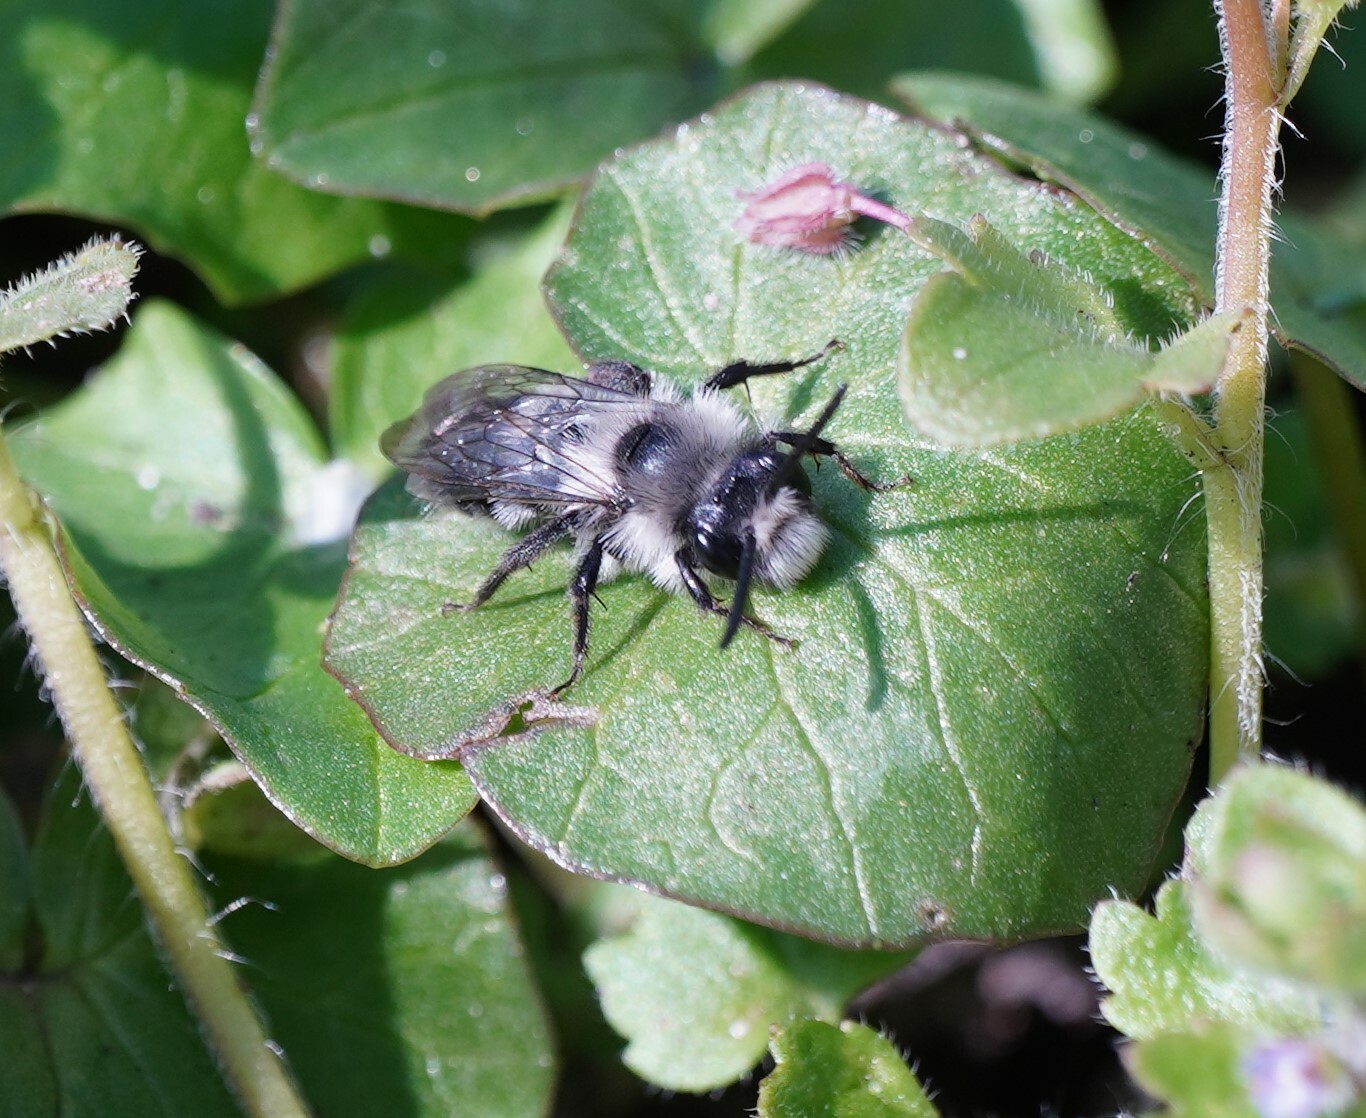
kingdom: Animalia
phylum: Arthropoda
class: Insecta
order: Hymenoptera
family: Andrenidae
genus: Andrena
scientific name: Andrena cineraria
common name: Ashy mining bee
